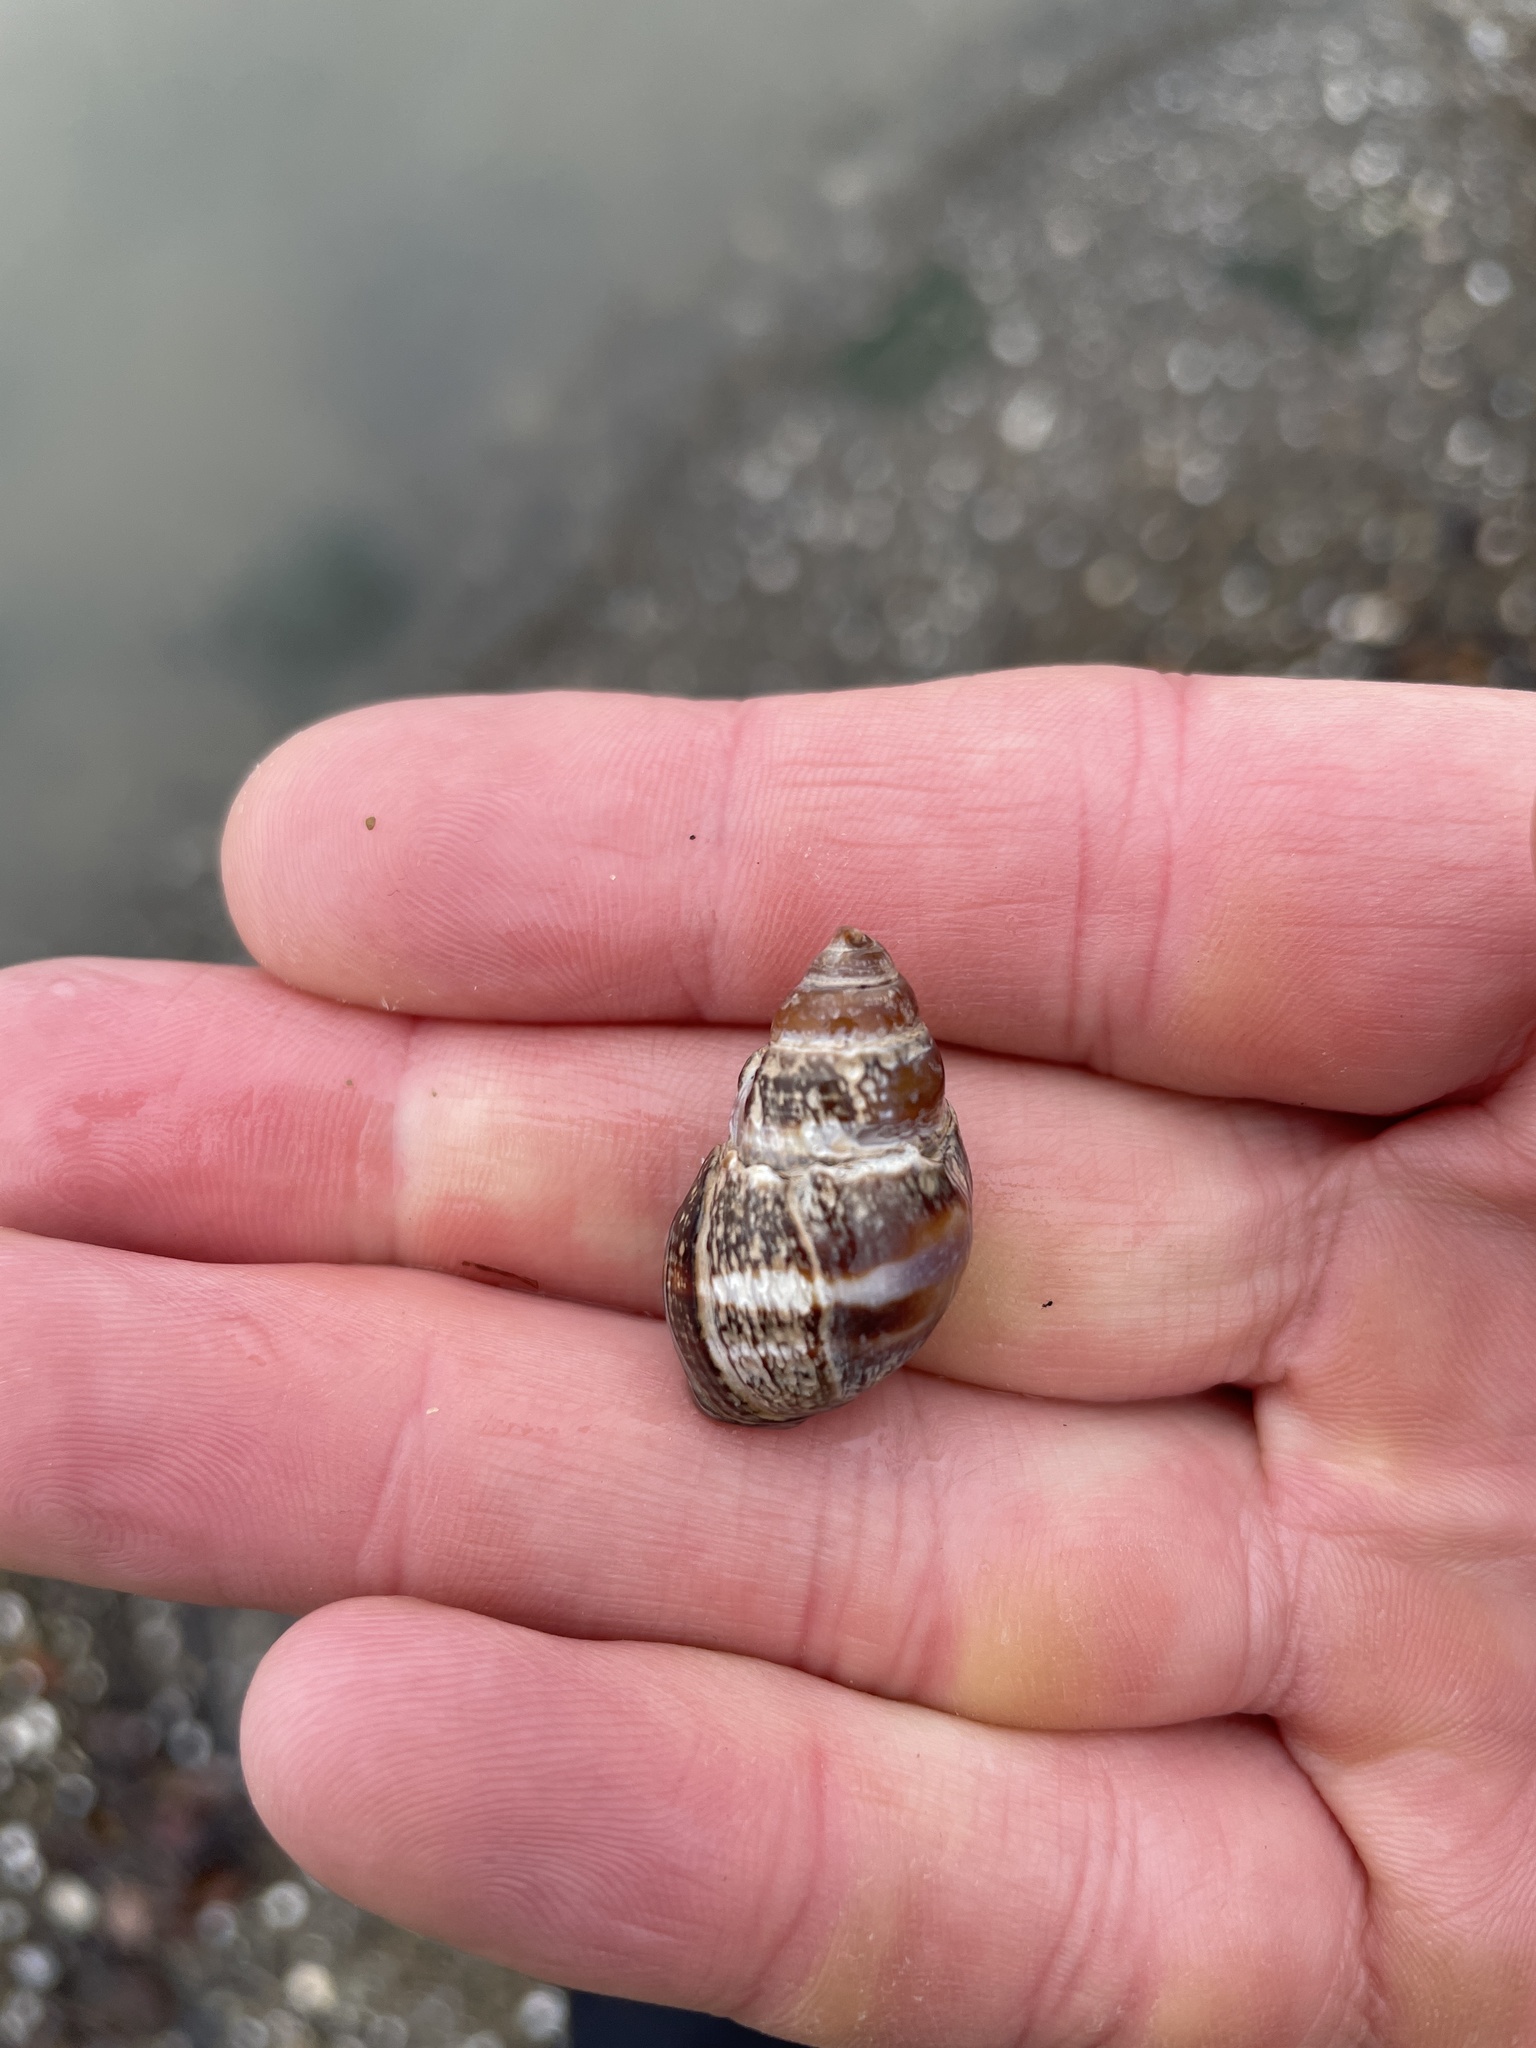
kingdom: Animalia
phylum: Mollusca
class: Gastropoda
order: Neogastropoda
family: Nassariidae
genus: Ilyanassa
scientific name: Ilyanassa obsoleta
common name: Eastern mudsnail
